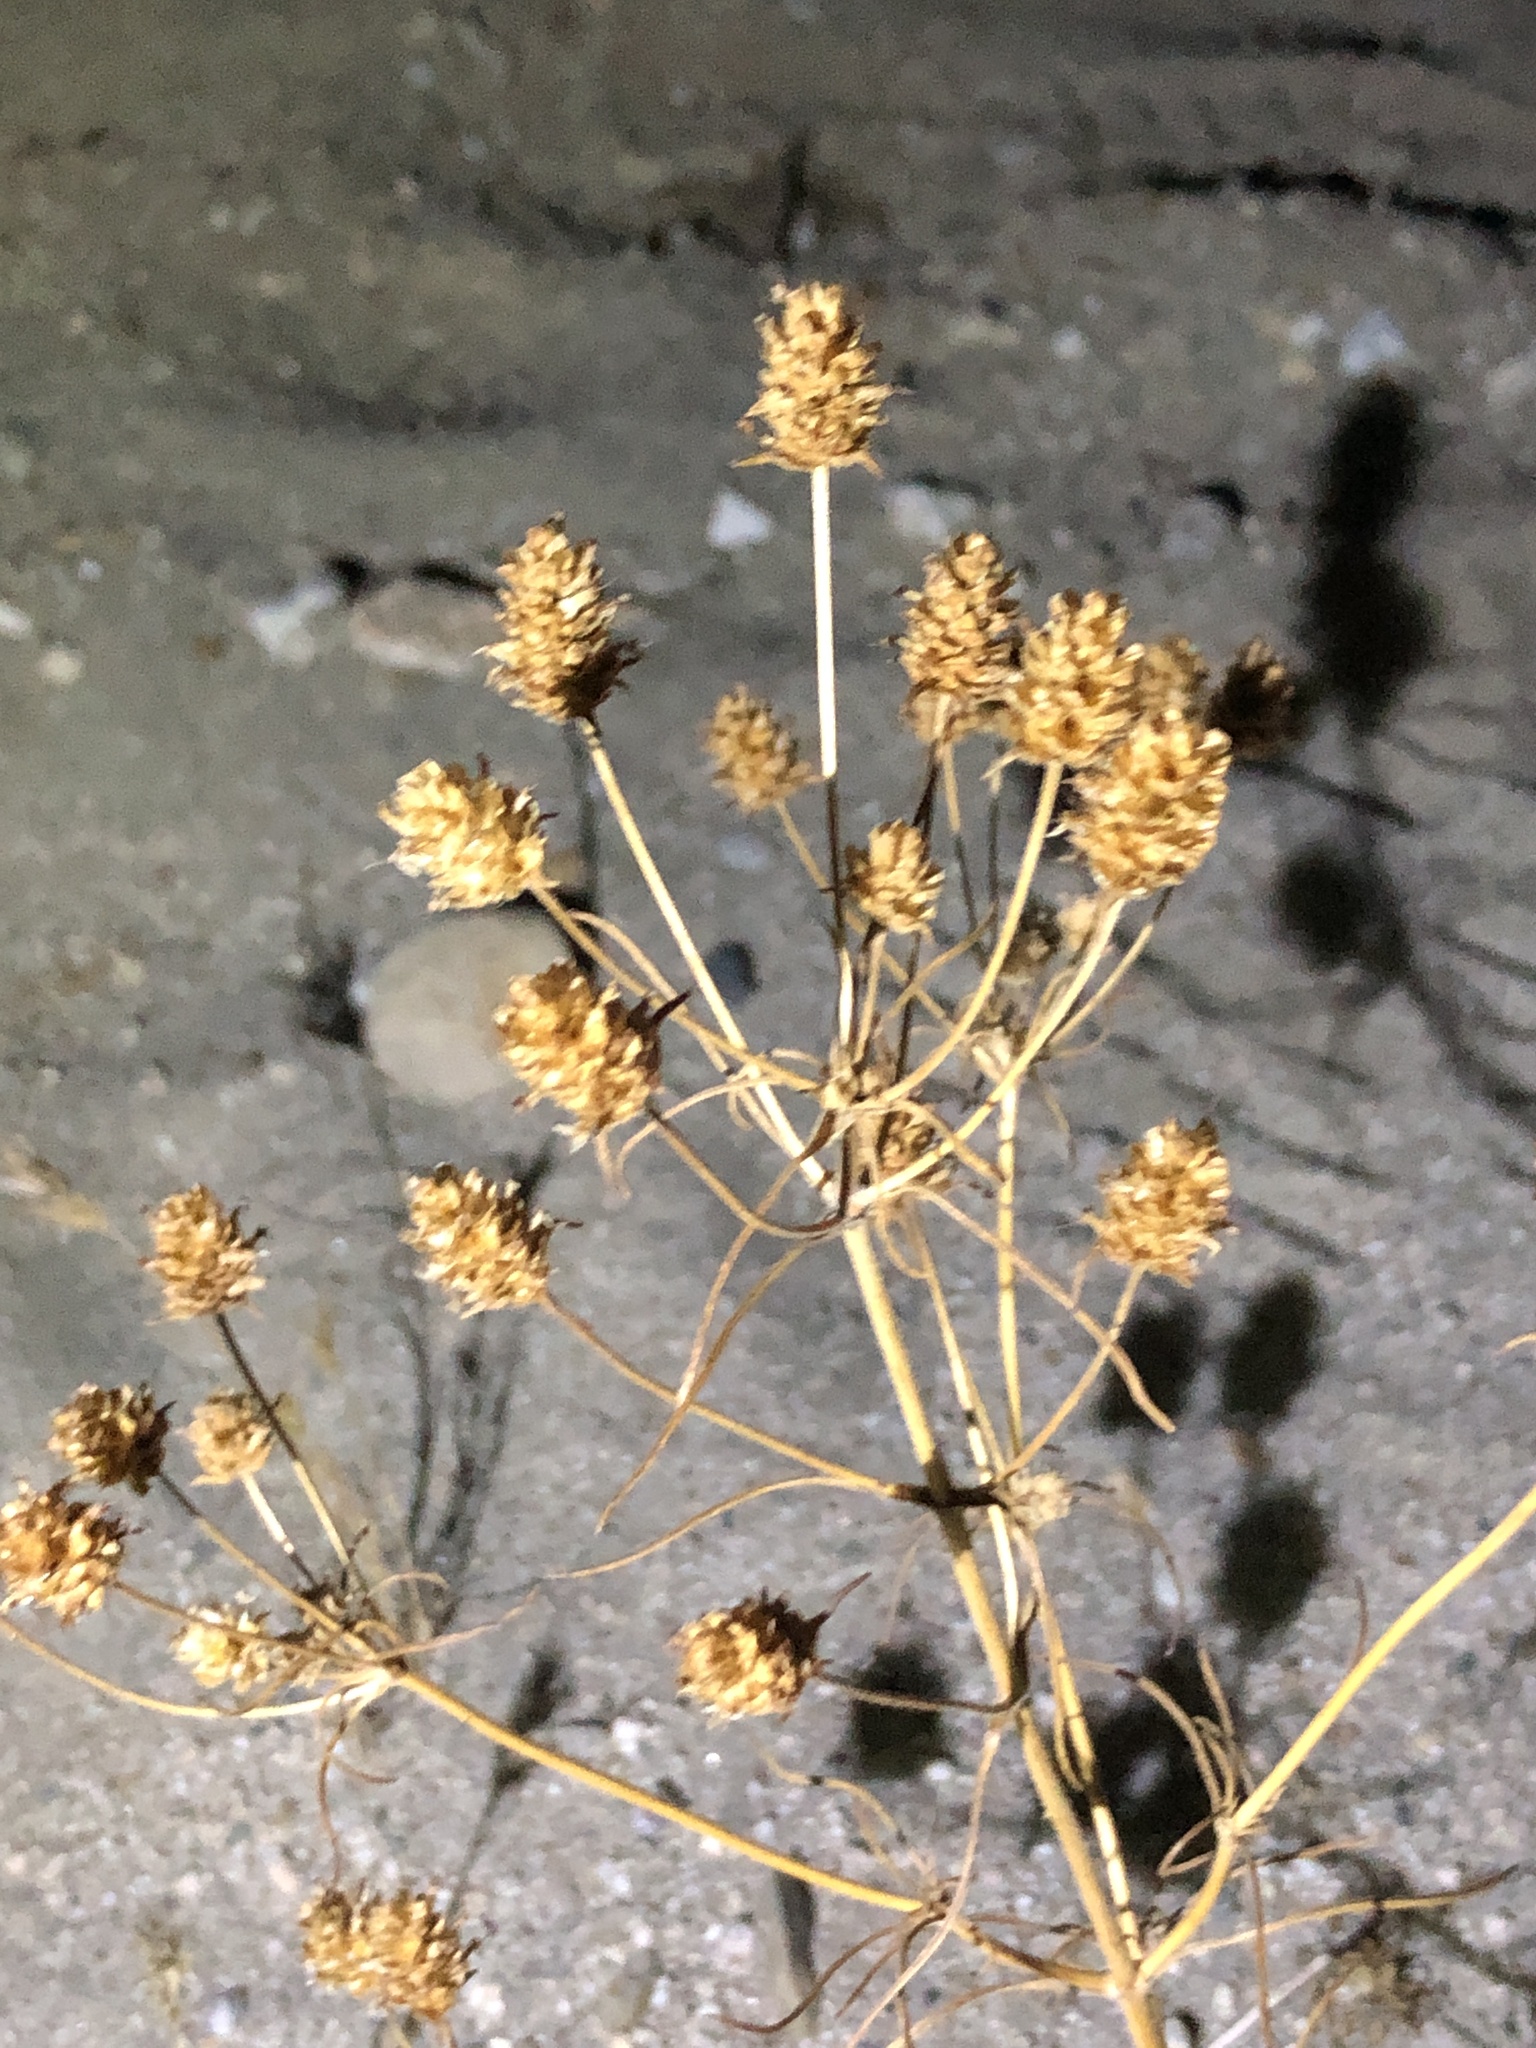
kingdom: Plantae
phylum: Tracheophyta
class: Magnoliopsida
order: Lamiales
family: Plantaginaceae
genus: Plantago
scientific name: Plantago arenaria
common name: Branched plantain
